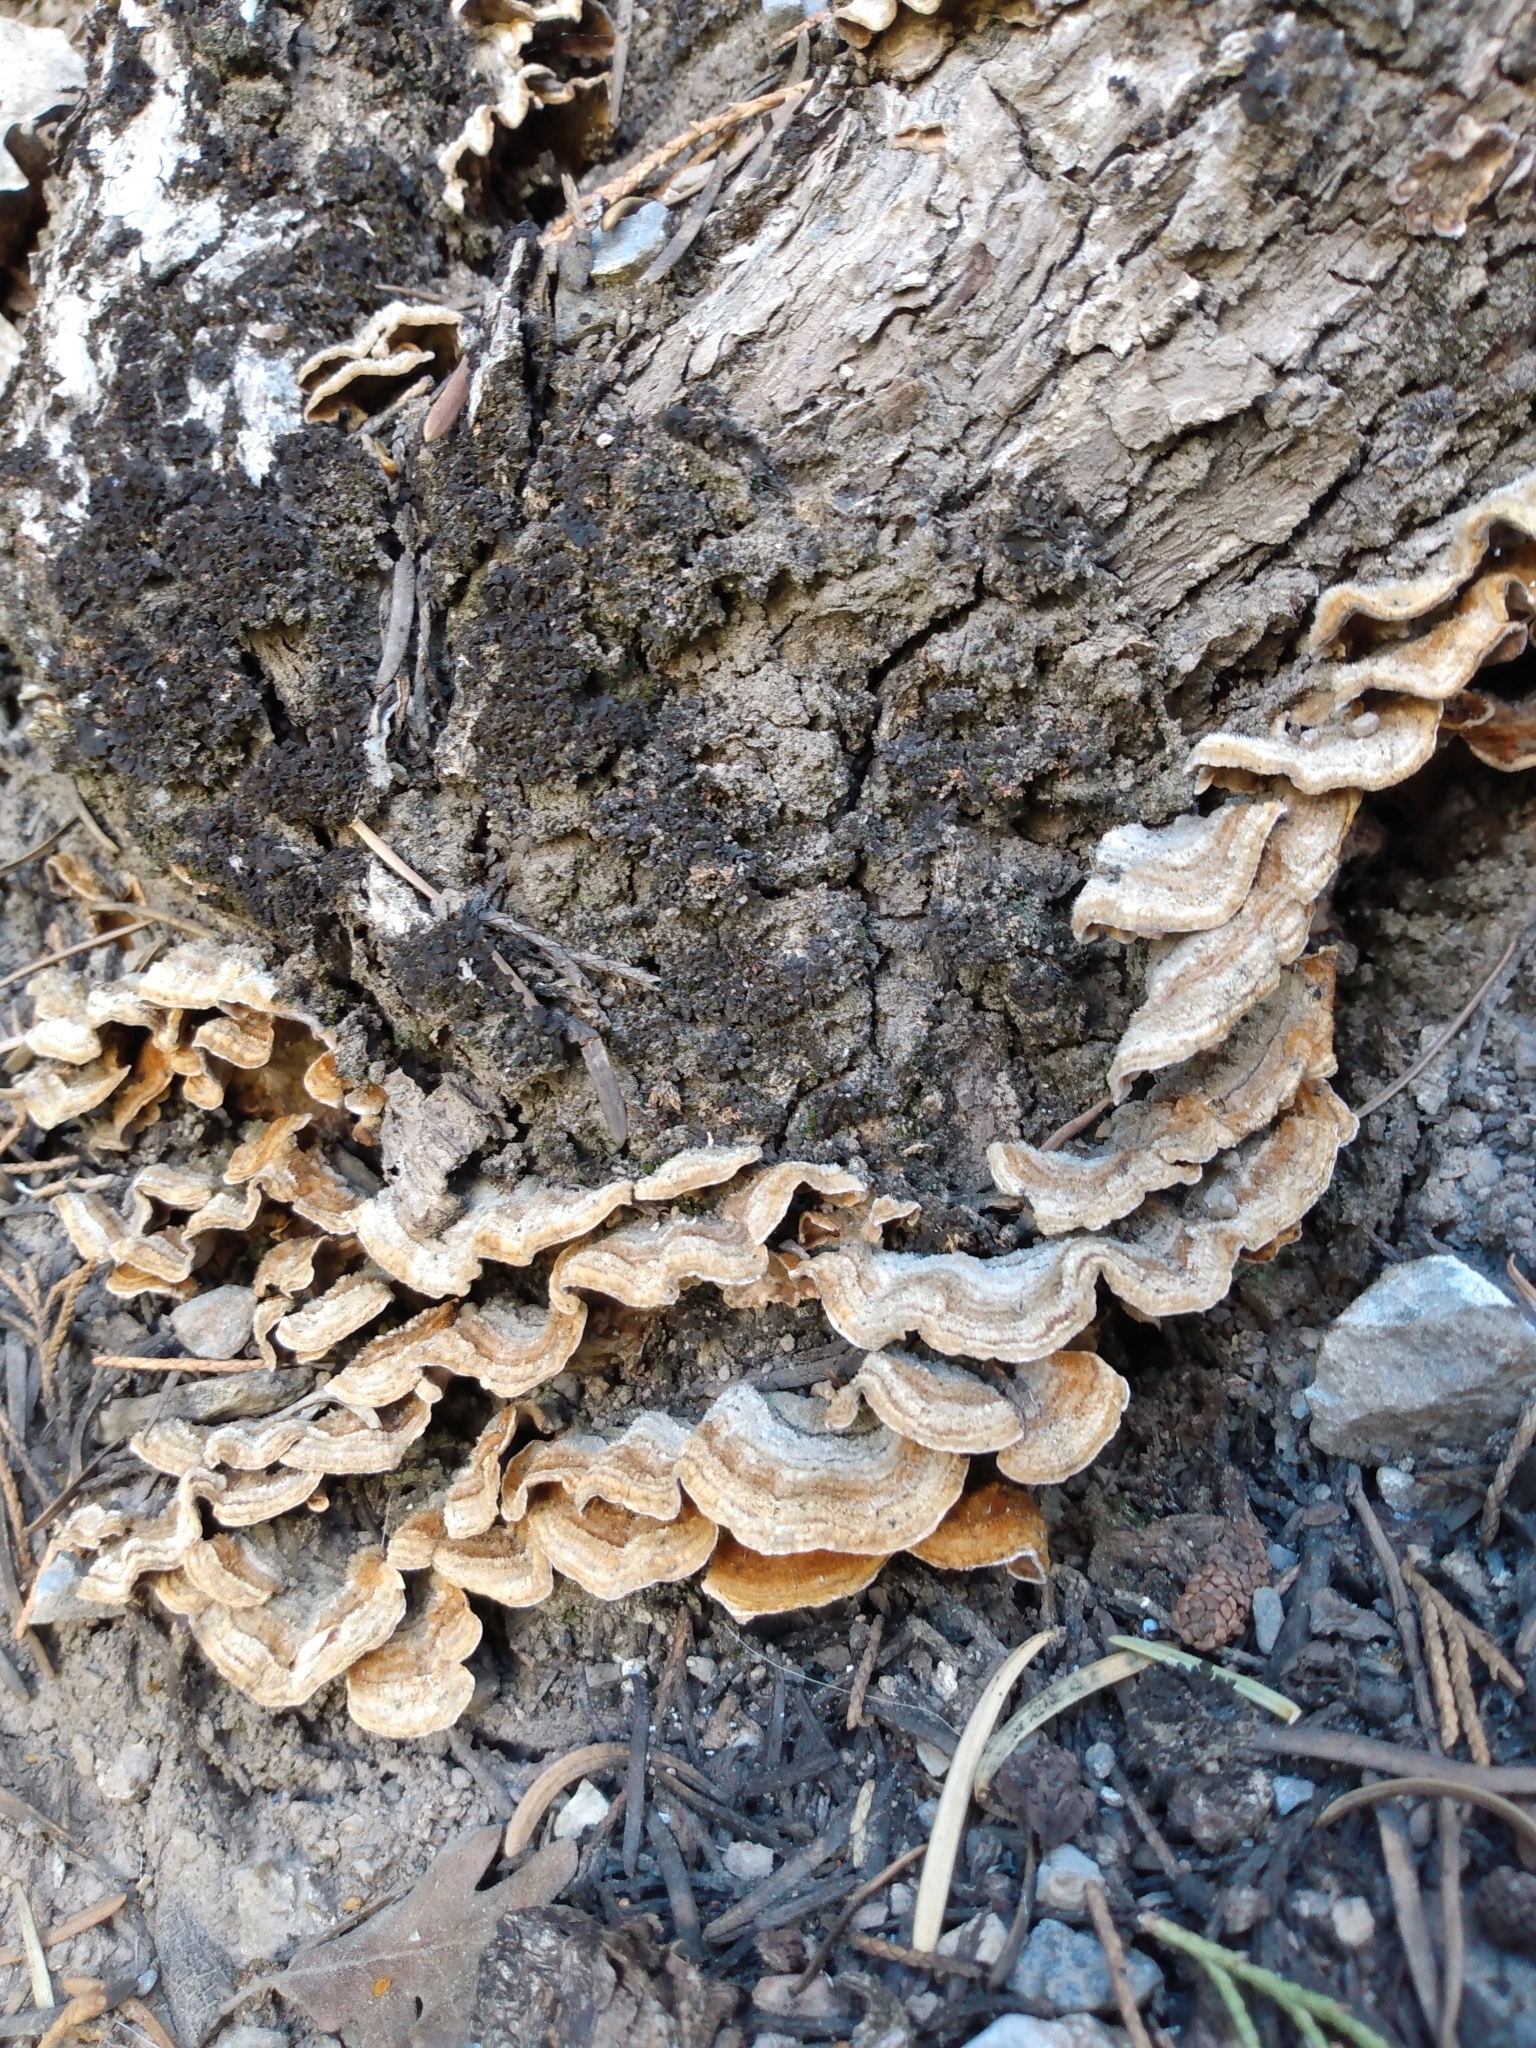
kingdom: Fungi
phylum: Basidiomycota
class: Agaricomycetes
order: Russulales
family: Stereaceae
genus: Stereum
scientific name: Stereum hirsutum
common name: Hairy curtain crust
